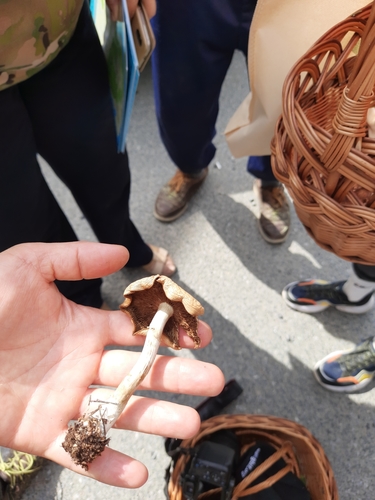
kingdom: Fungi
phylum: Basidiomycota
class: Agaricomycetes
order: Agaricales
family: Strophariaceae
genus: Agrocybe
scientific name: Agrocybe praecox
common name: Spring fieldcap
